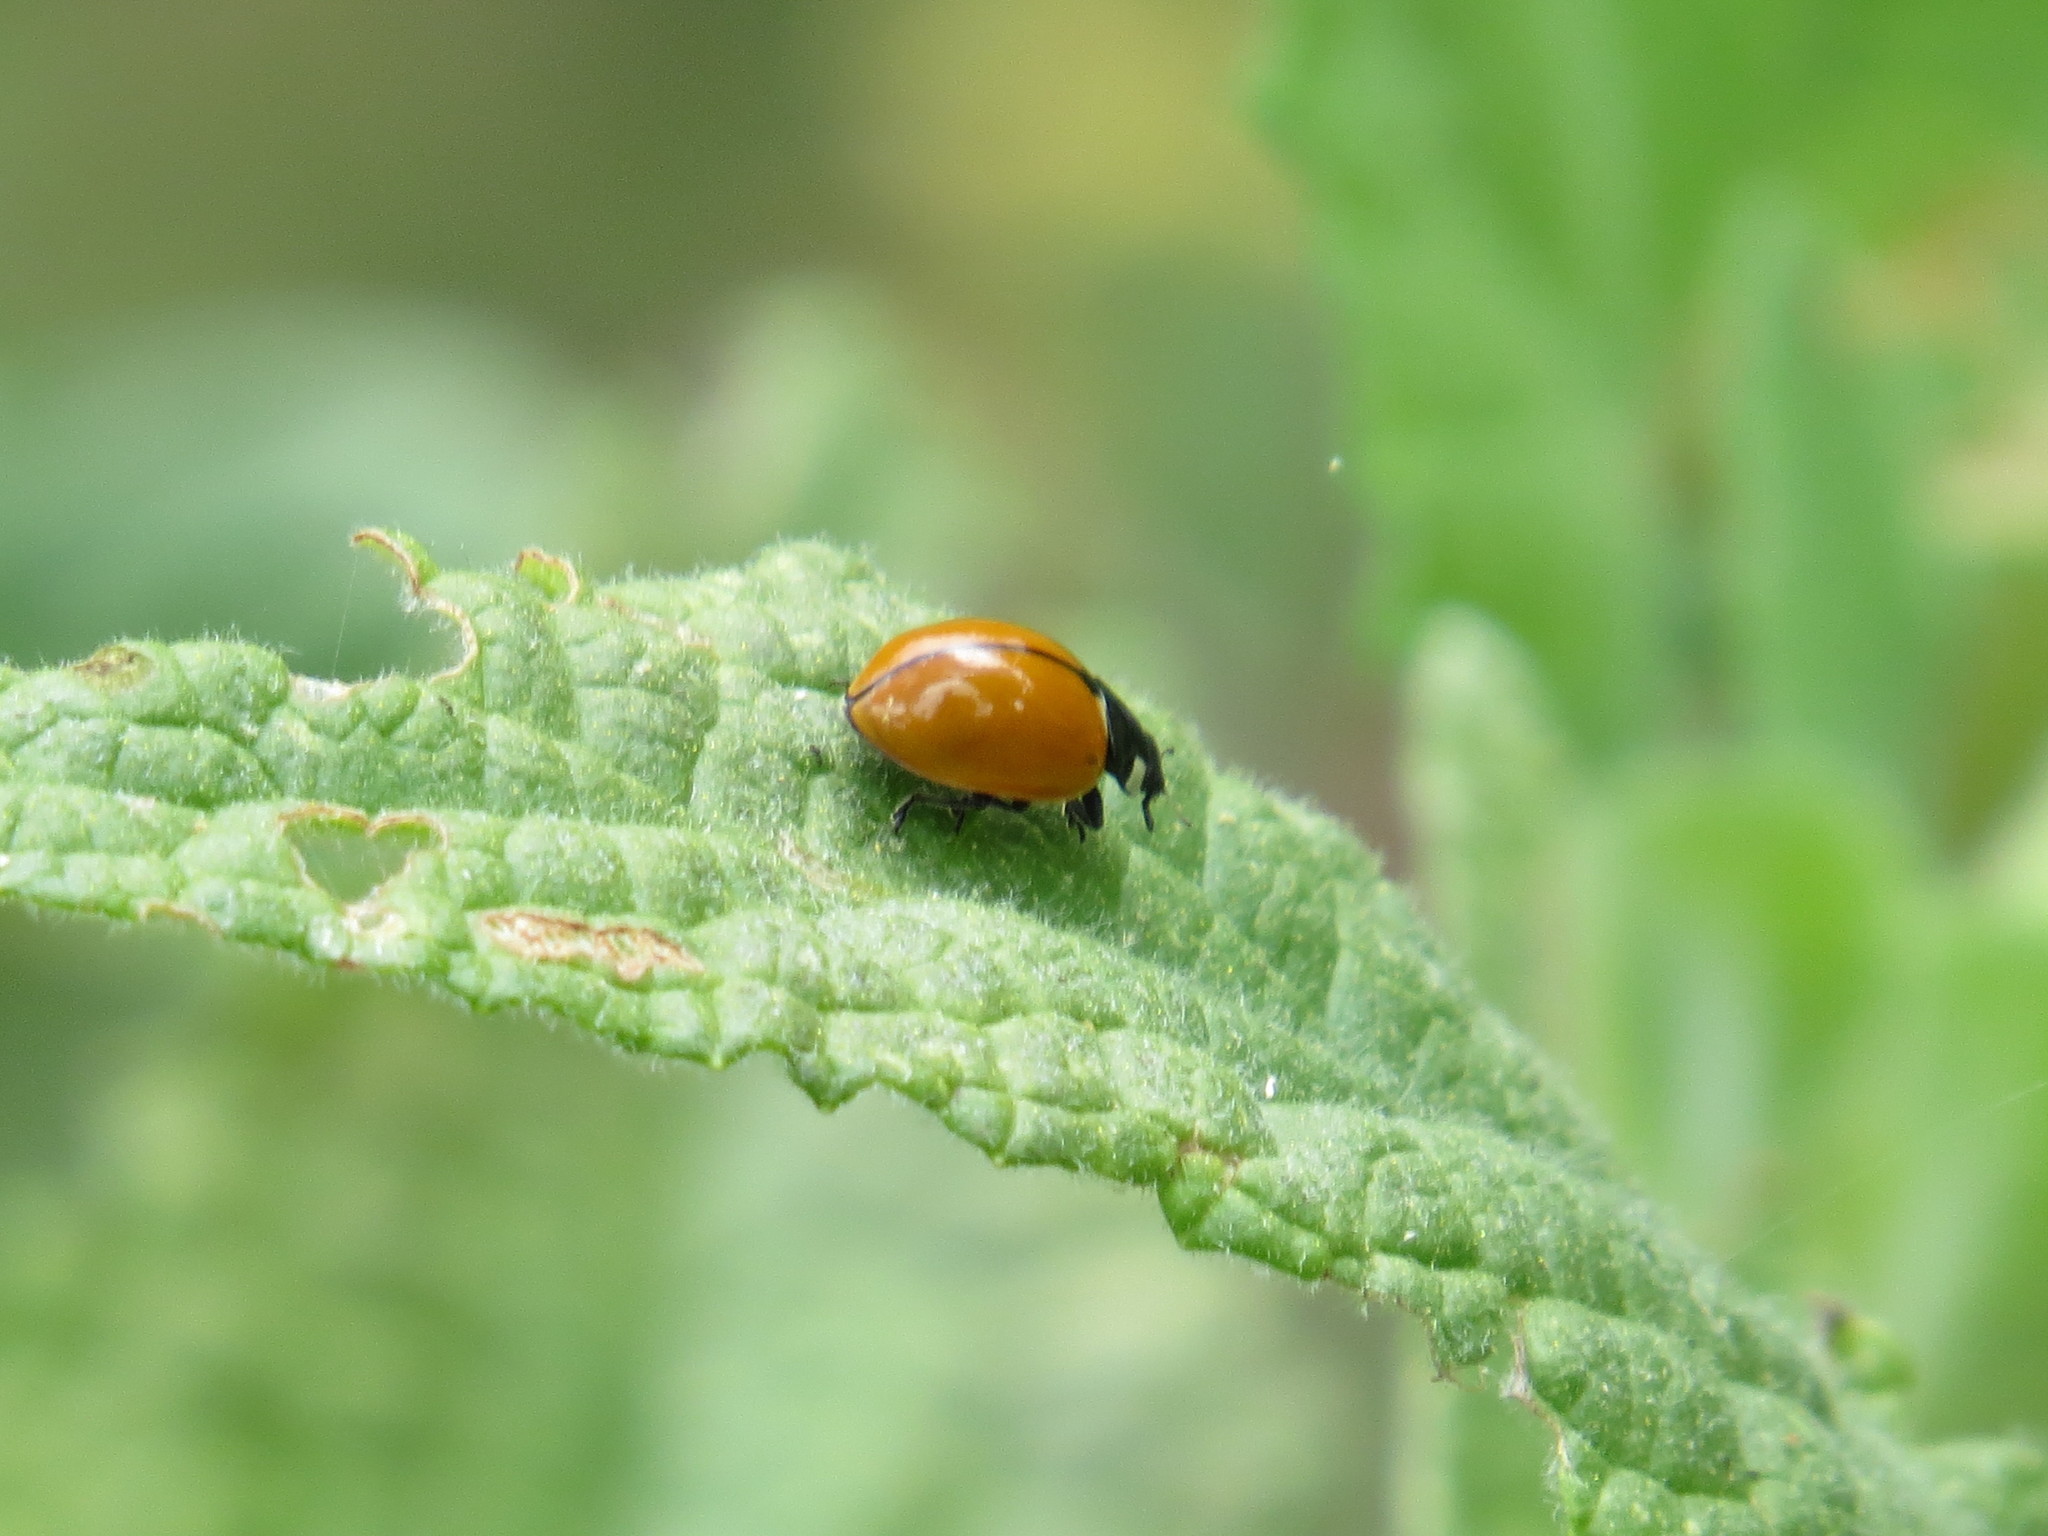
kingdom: Animalia
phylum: Arthropoda
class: Insecta
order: Coleoptera
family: Coccinellidae
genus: Coccinella
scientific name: Coccinella californica
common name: Lady beetle
